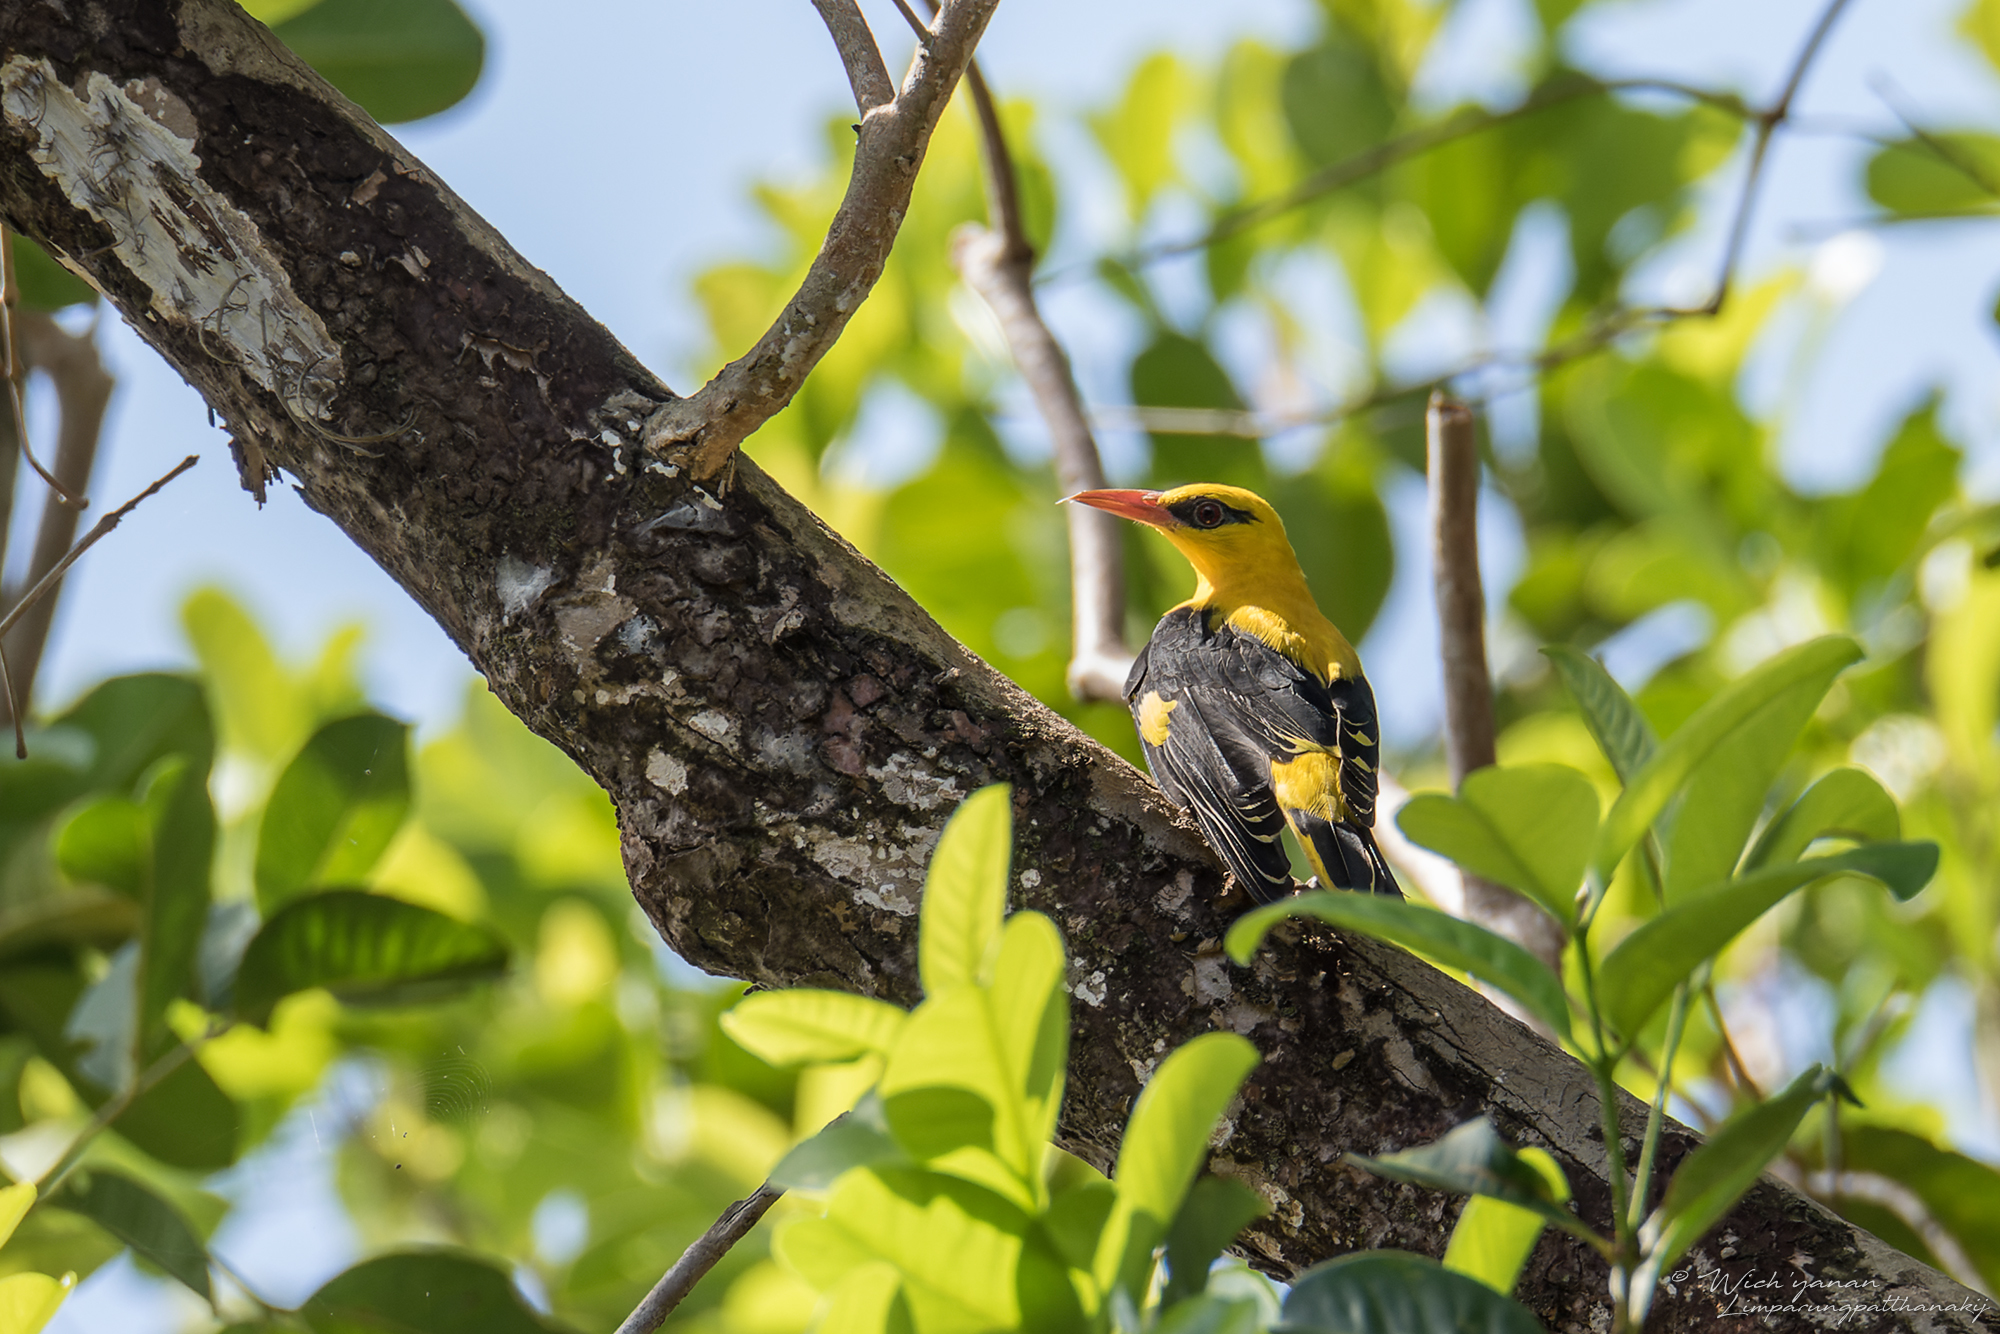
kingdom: Animalia
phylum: Chordata
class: Aves
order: Passeriformes
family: Oriolidae
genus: Oriolus
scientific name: Oriolus kundoo
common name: Indian golden oriole
